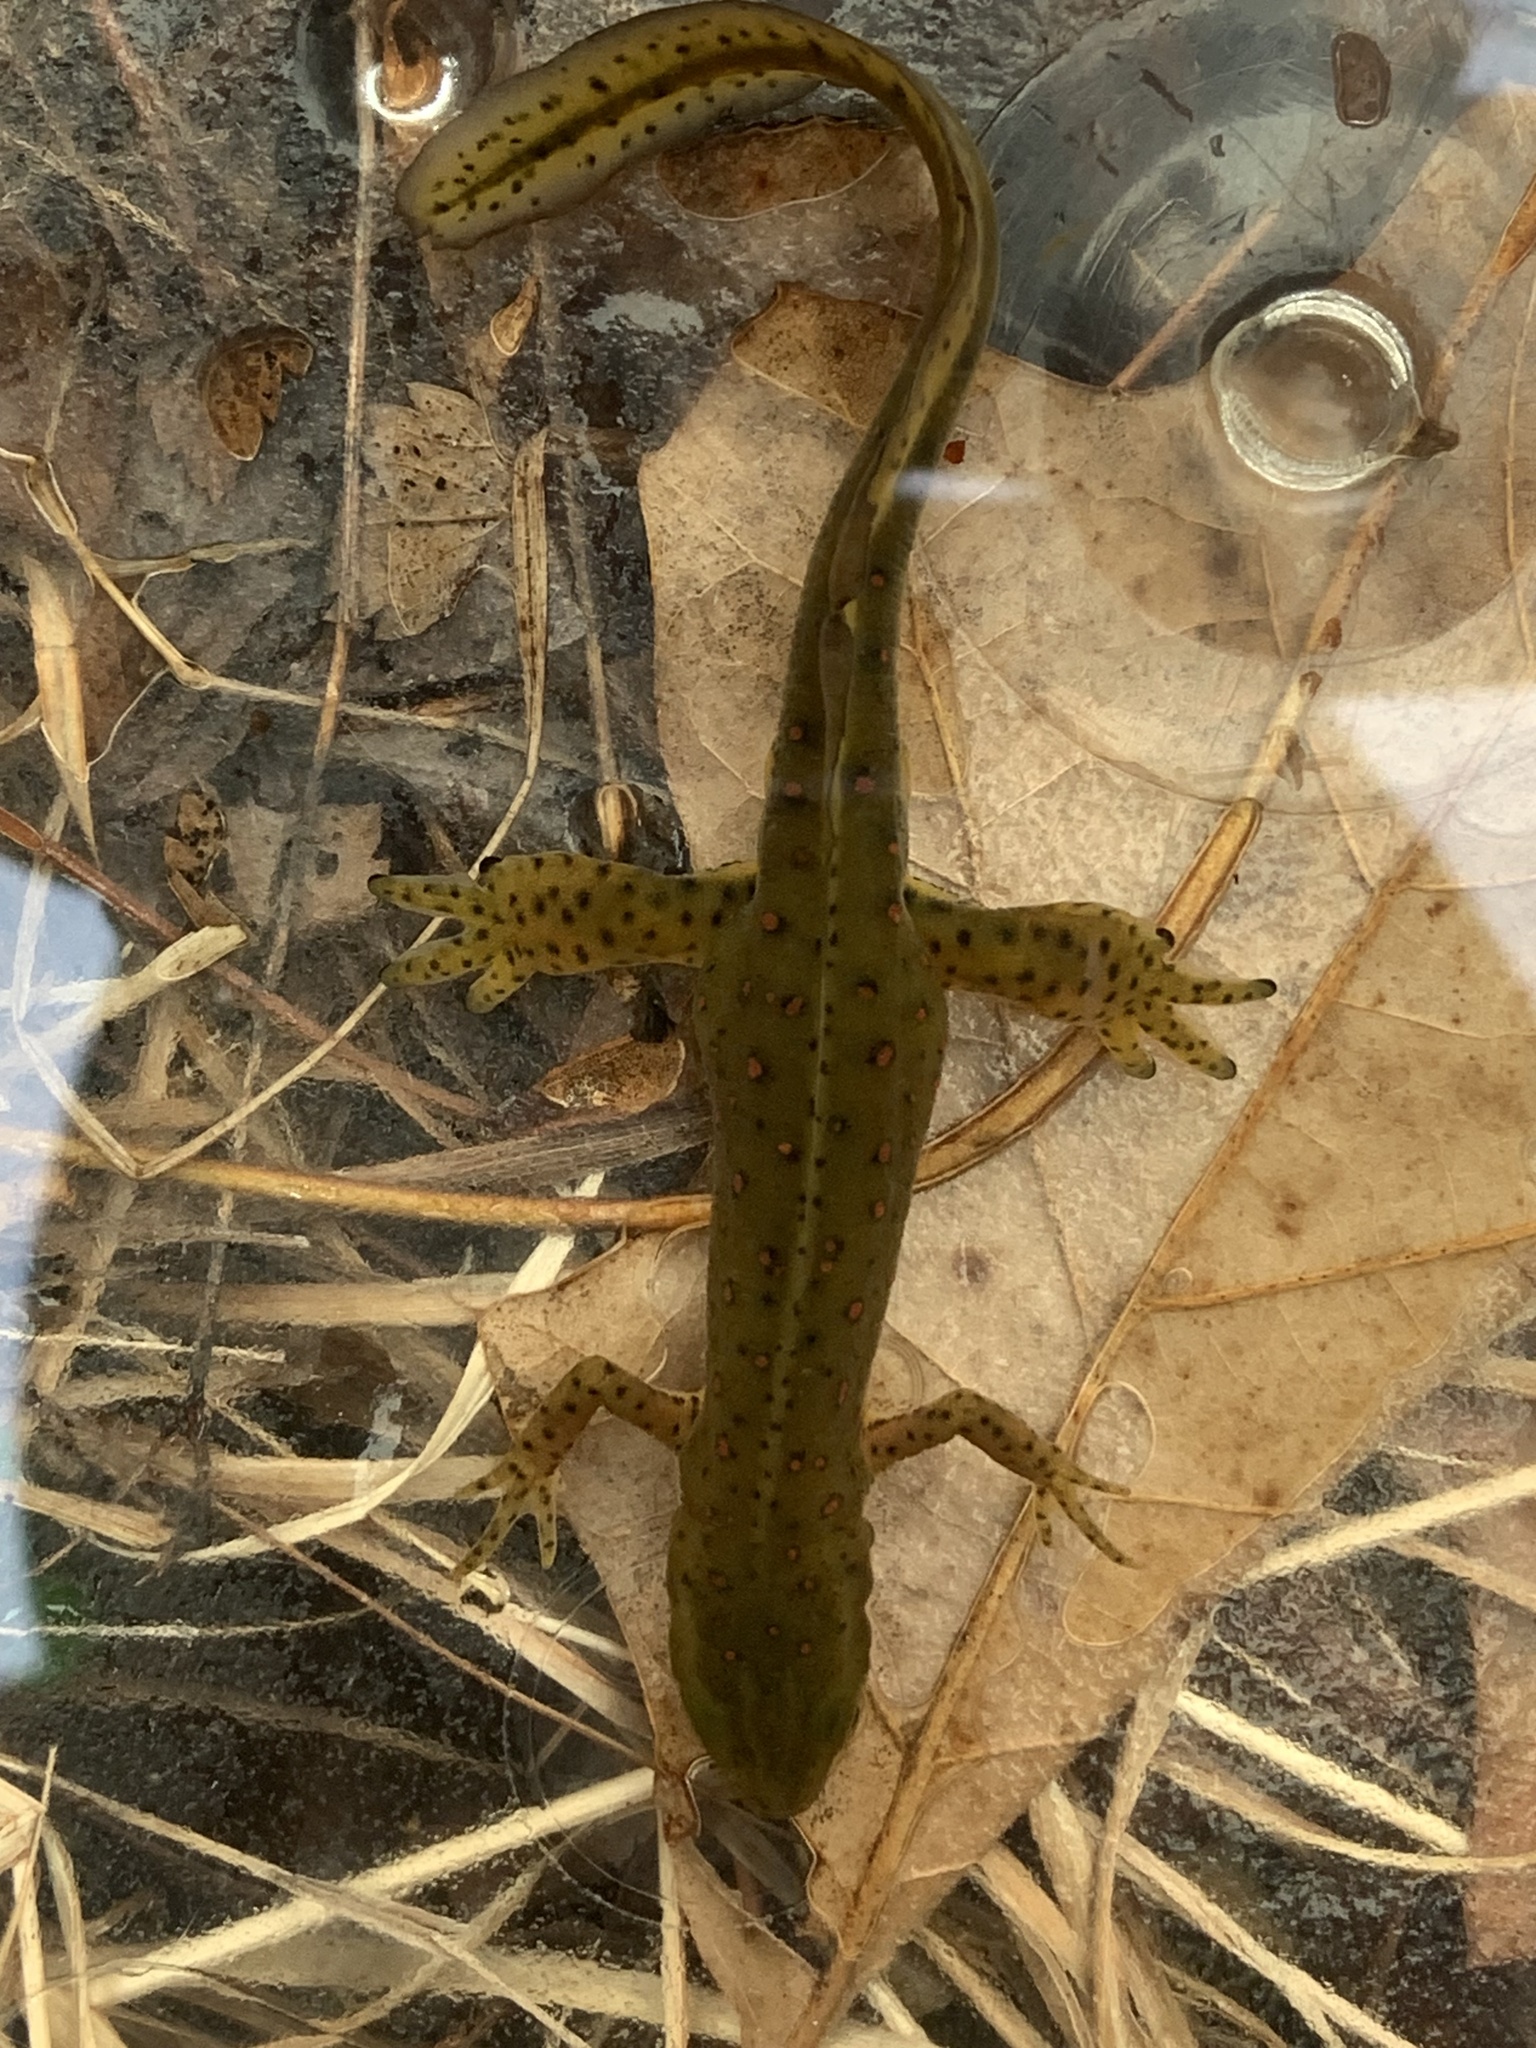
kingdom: Animalia
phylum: Chordata
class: Amphibia
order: Caudata
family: Salamandridae
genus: Notophthalmus
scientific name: Notophthalmus viridescens
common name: Eastern newt
